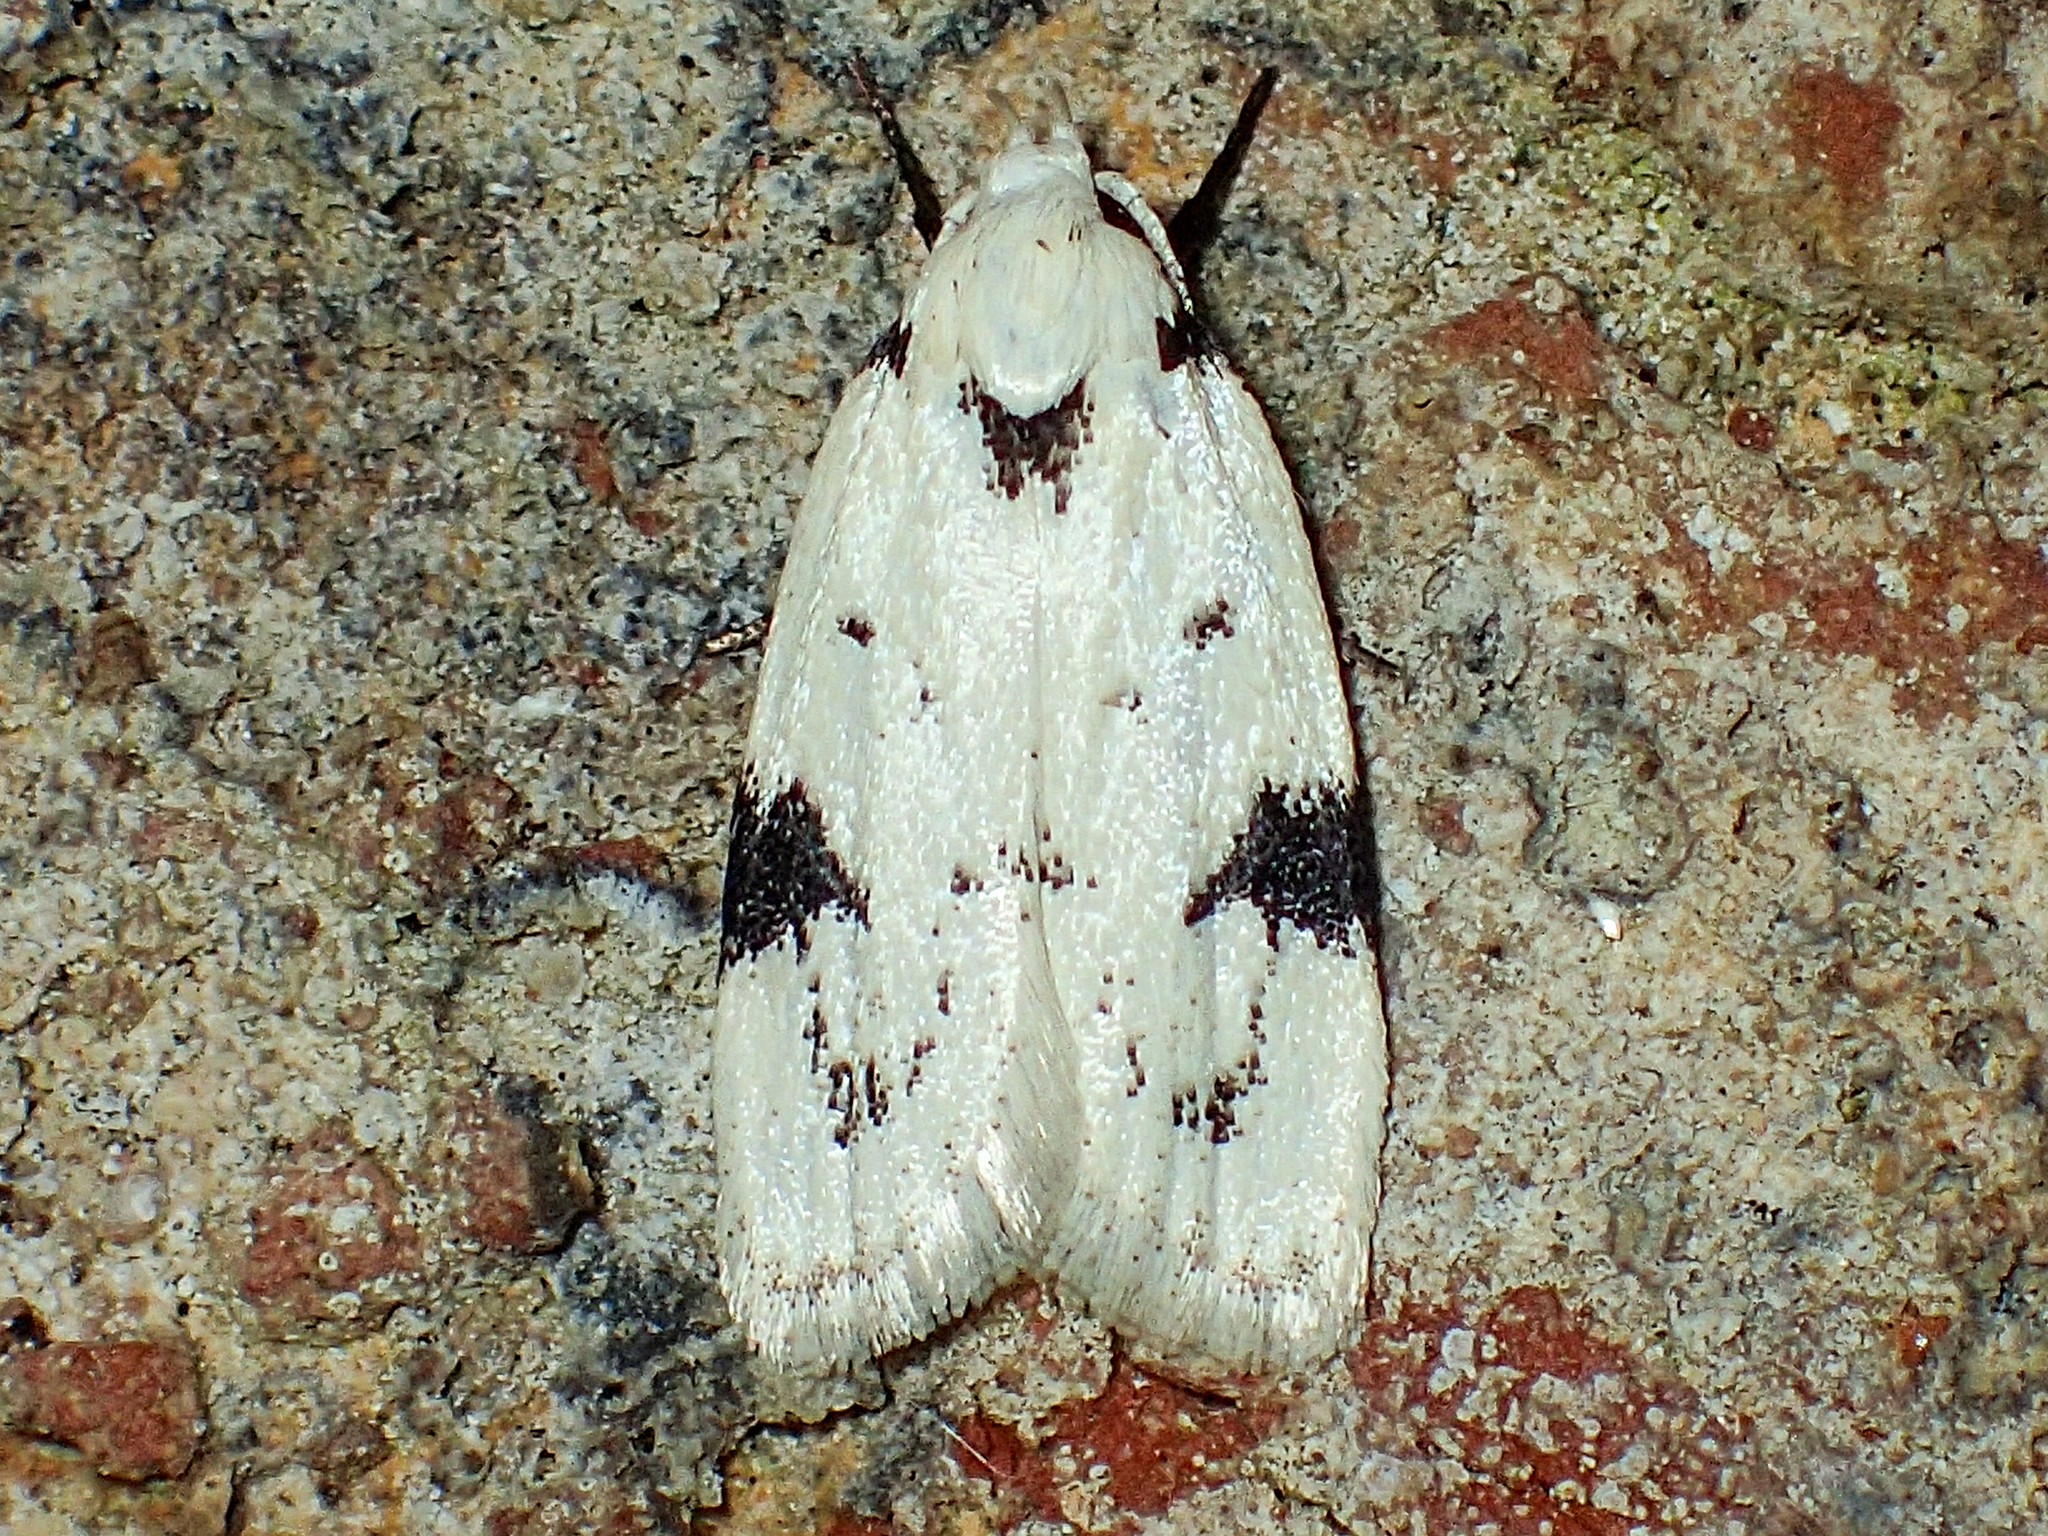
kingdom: Animalia
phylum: Arthropoda
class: Insecta
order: Lepidoptera
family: Oecophoridae
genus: Inga
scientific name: Inga sparsiciliella
